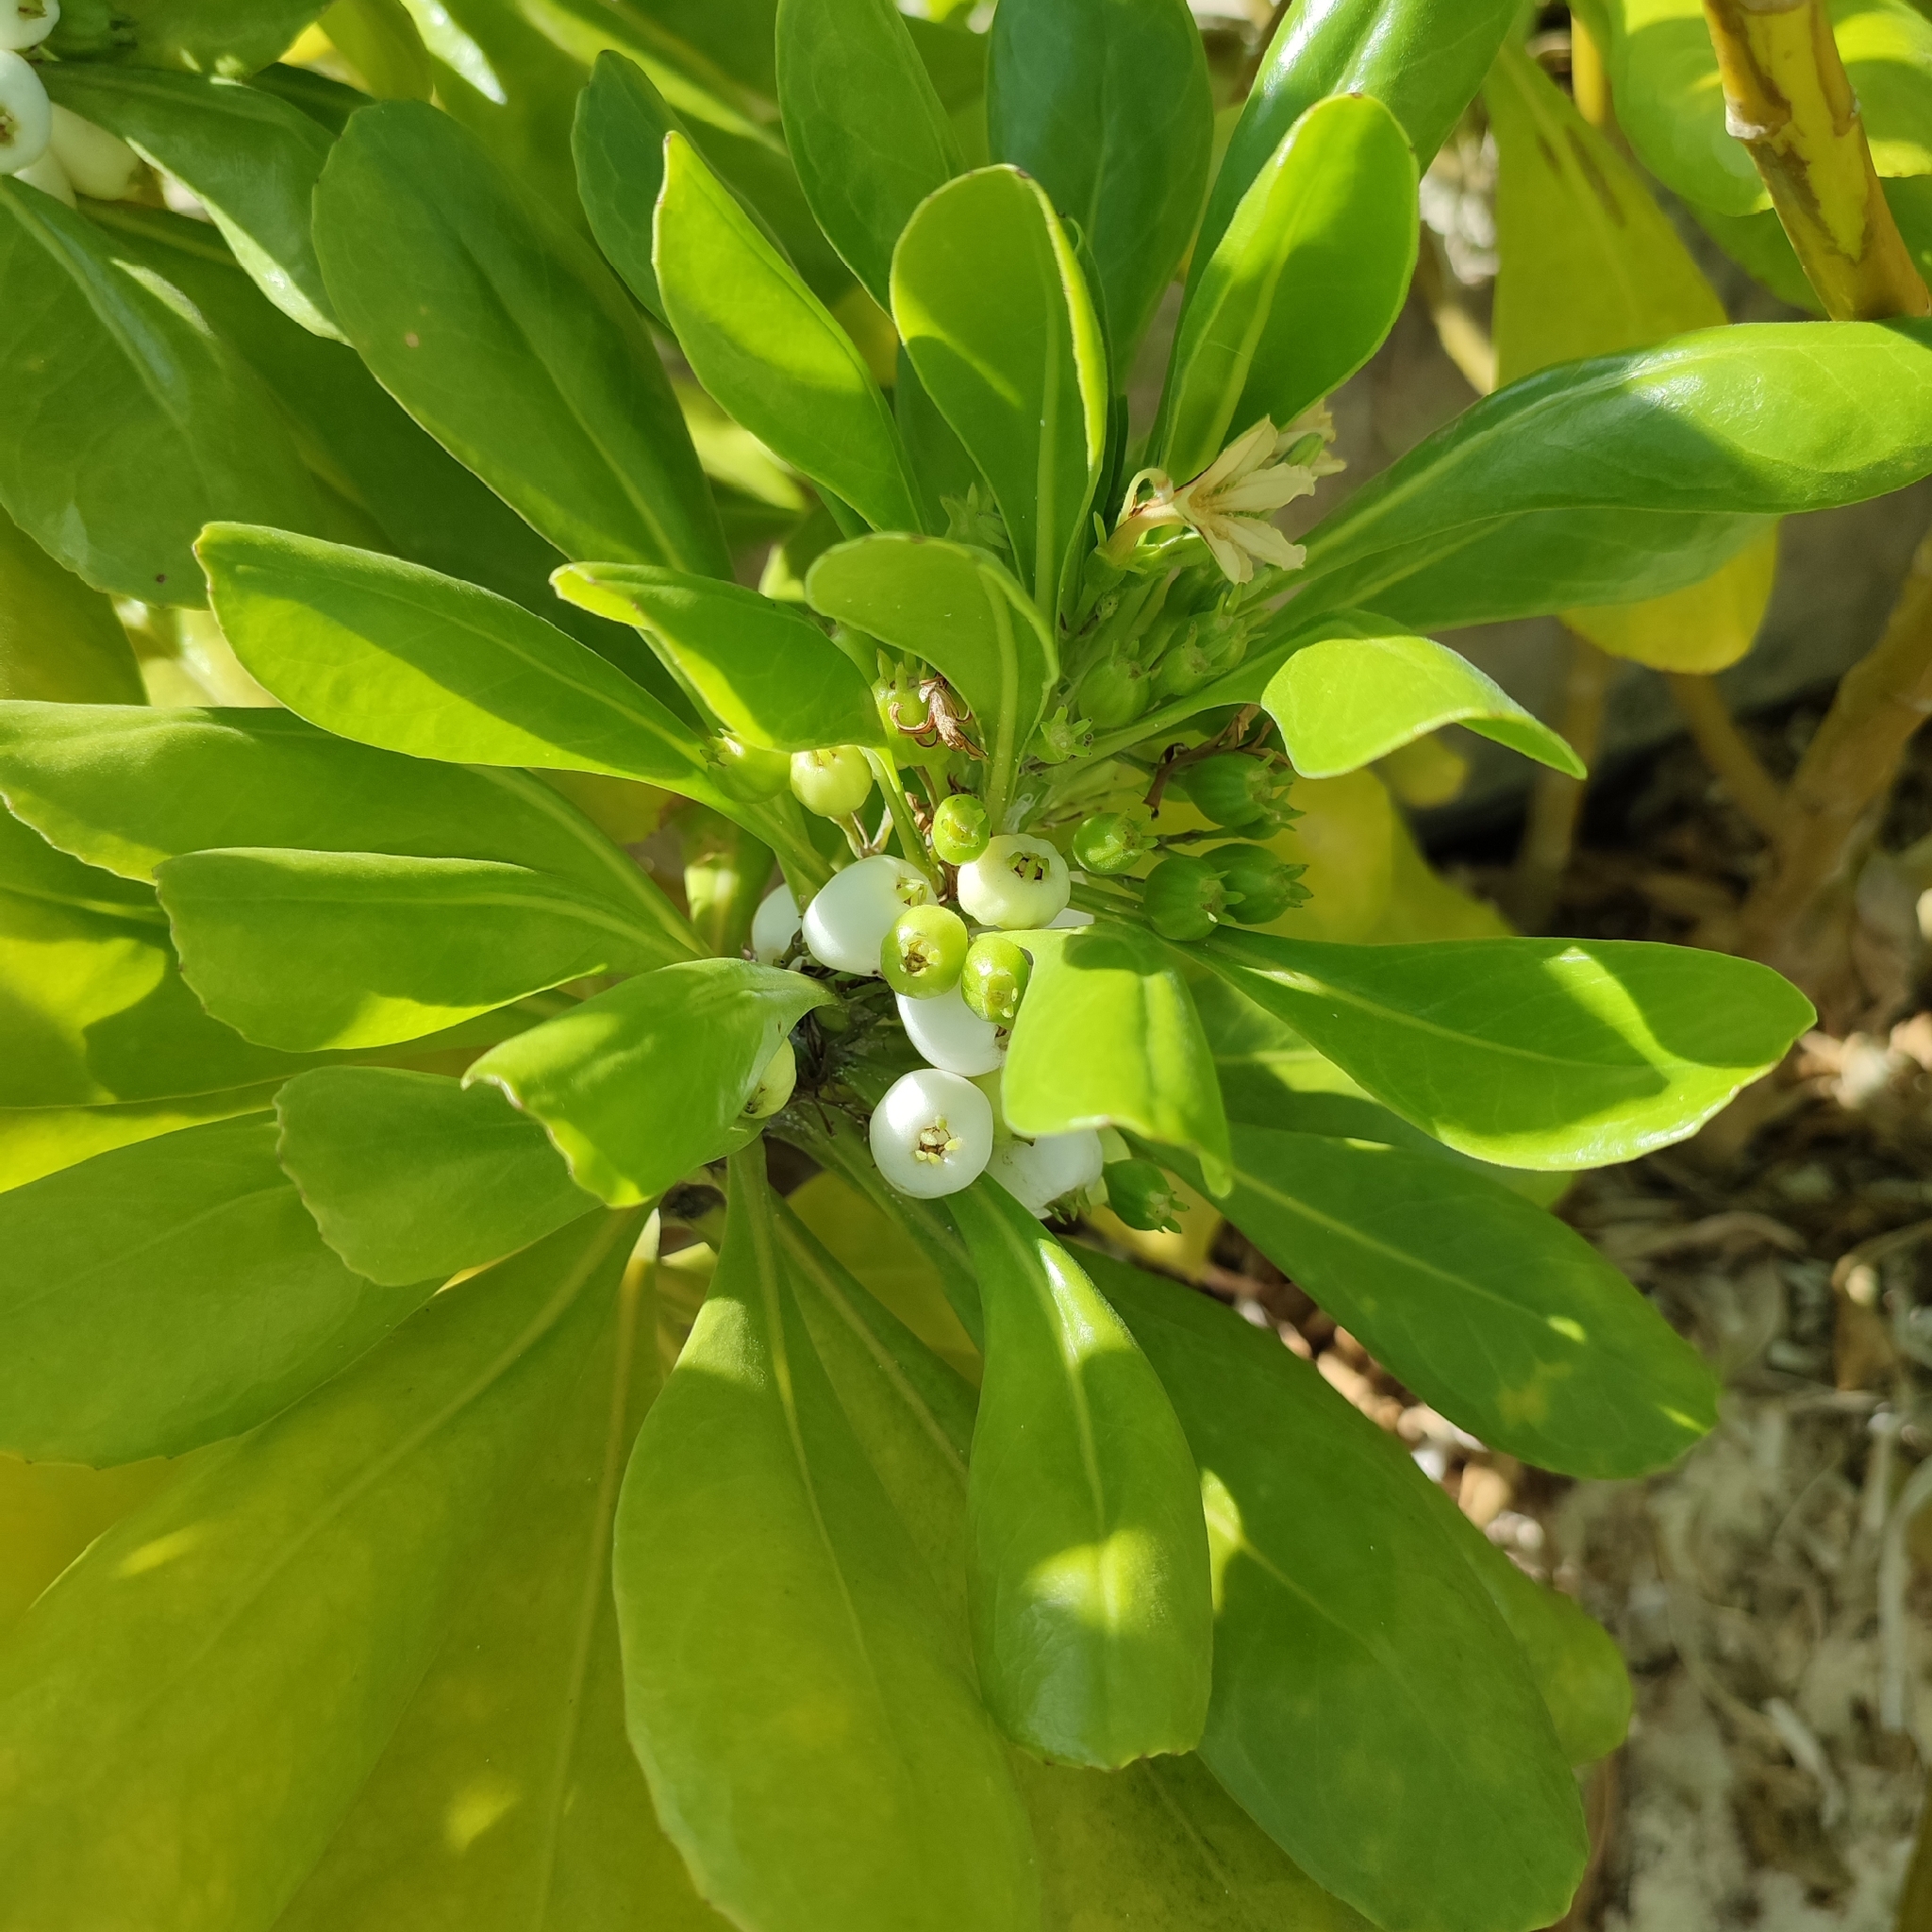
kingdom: Plantae
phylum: Tracheophyta
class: Magnoliopsida
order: Asterales
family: Goodeniaceae
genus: Scaevola
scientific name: Scaevola taccada
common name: Sea lettucetree
